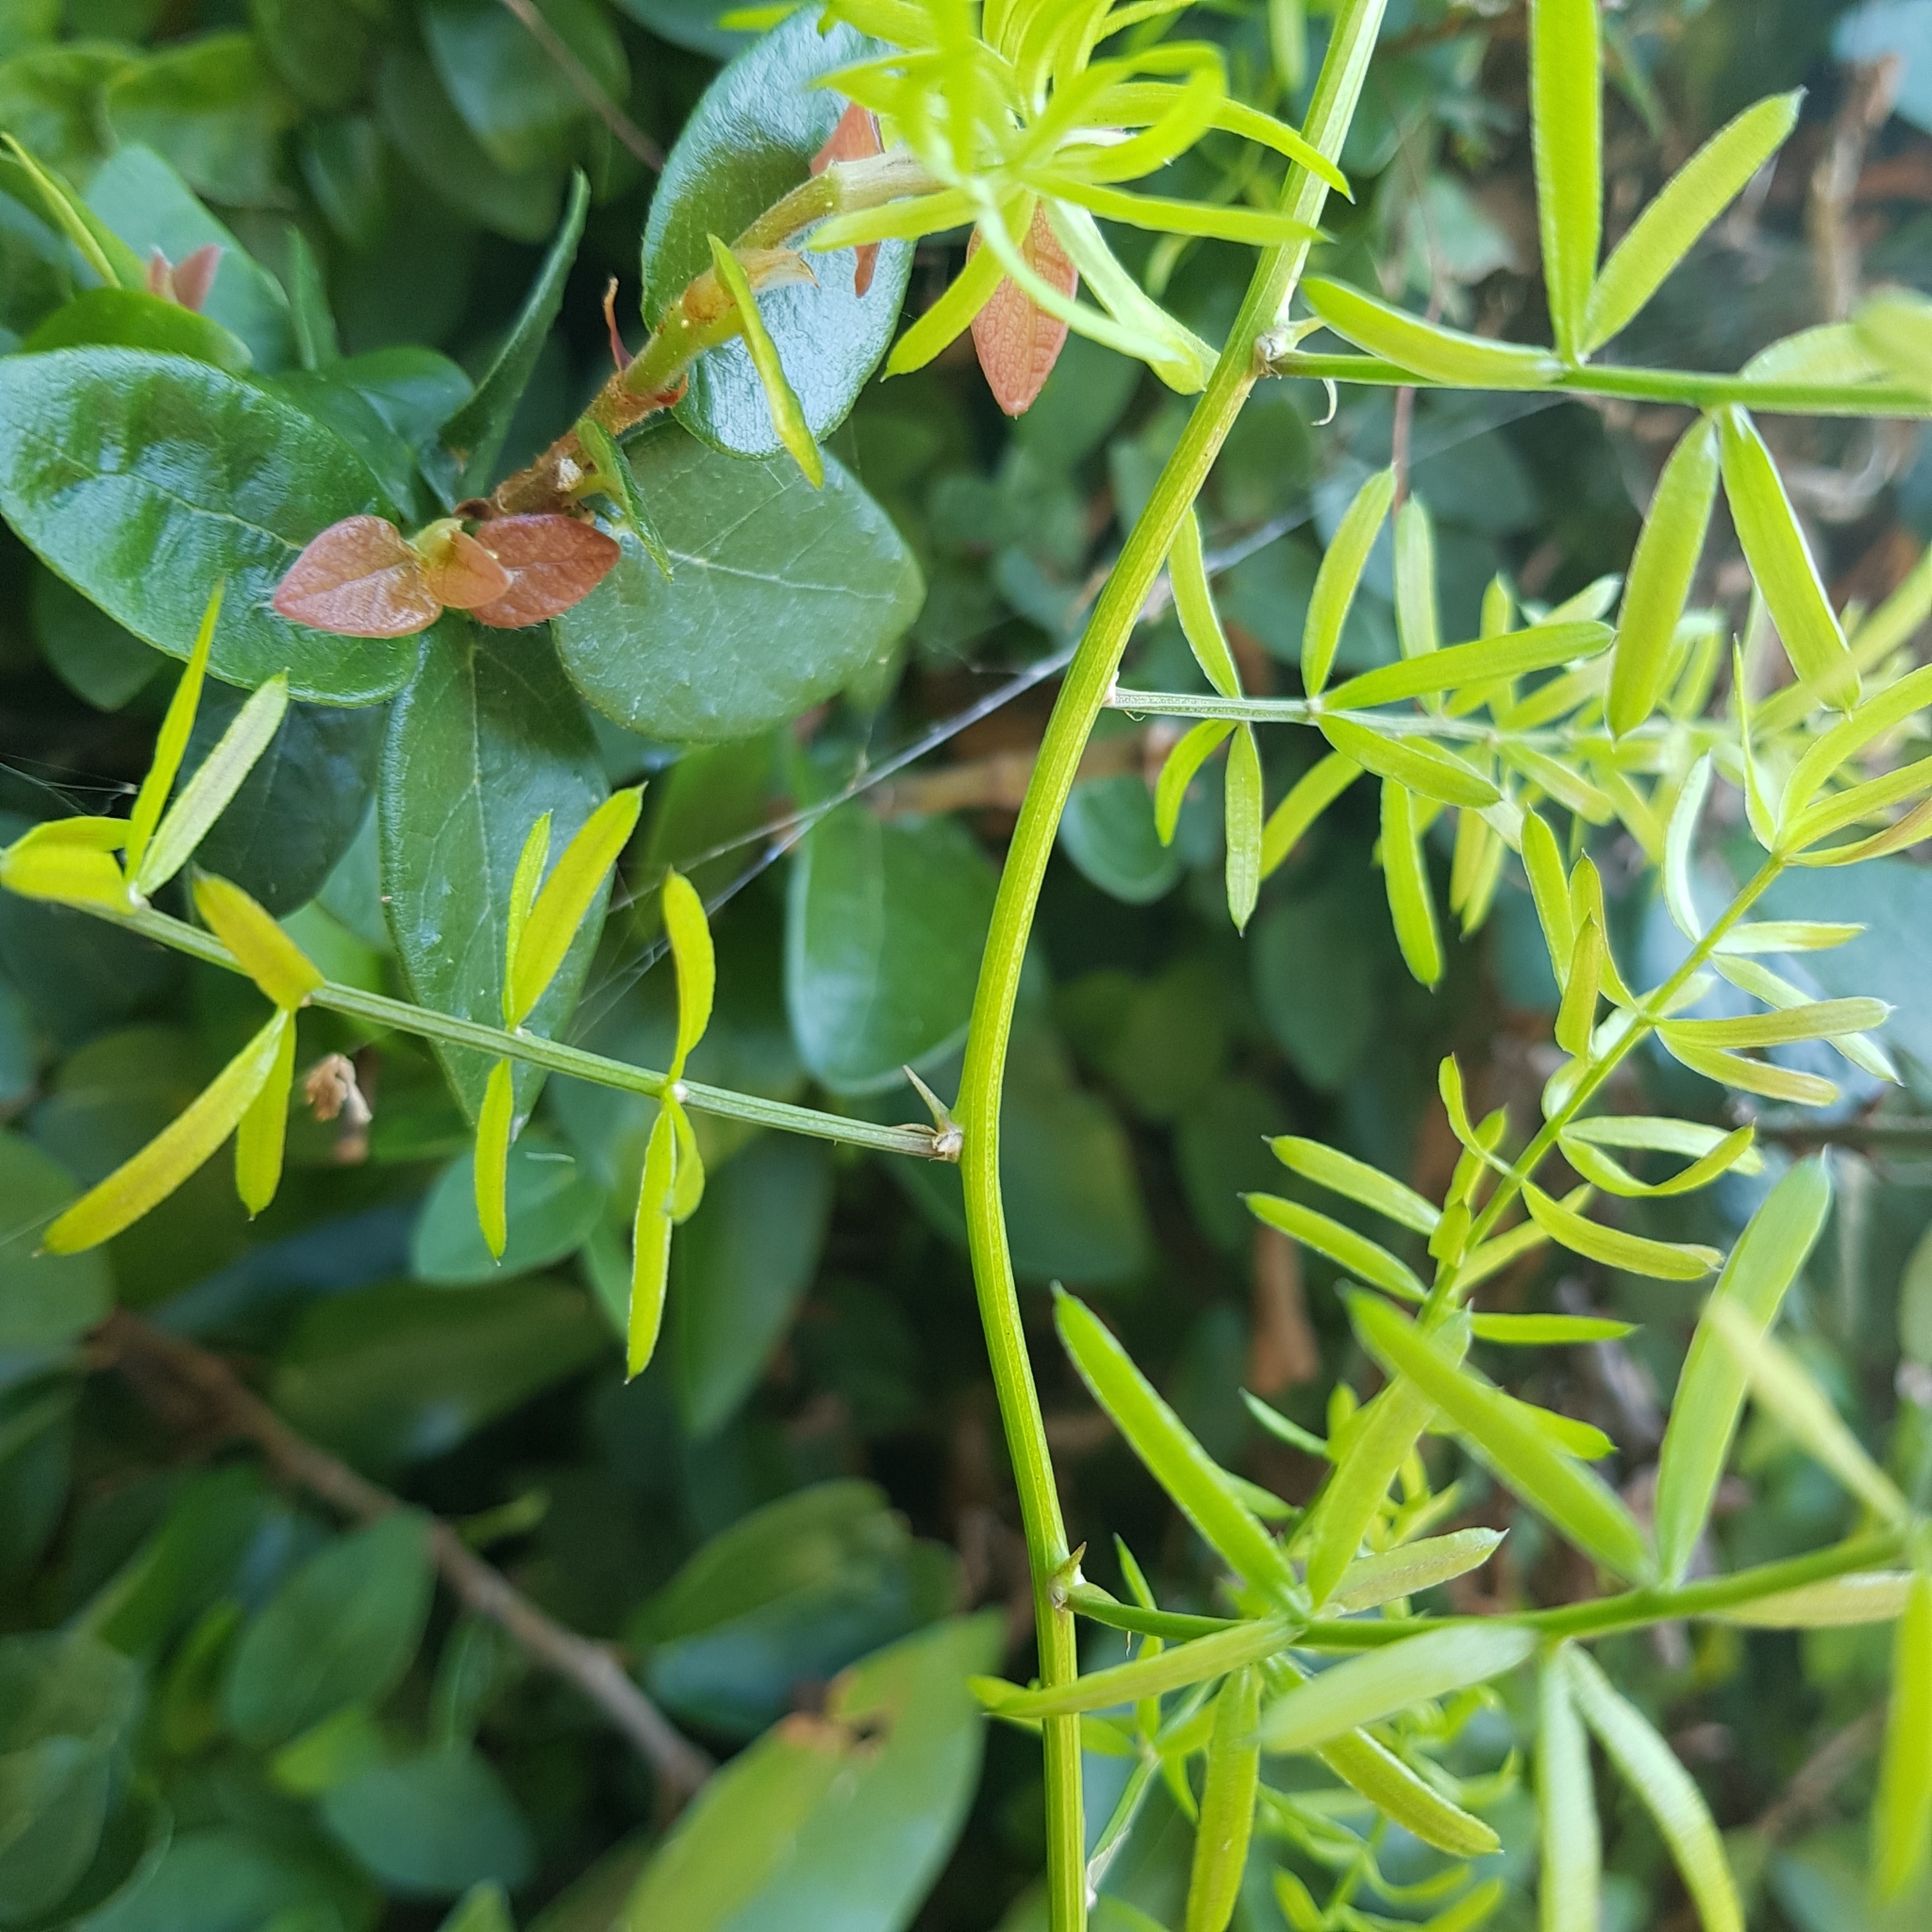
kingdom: Plantae
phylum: Tracheophyta
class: Liliopsida
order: Asparagales
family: Asparagaceae
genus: Asparagus
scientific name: Asparagus aethiopicus
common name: Sprenger's asparagus fern
